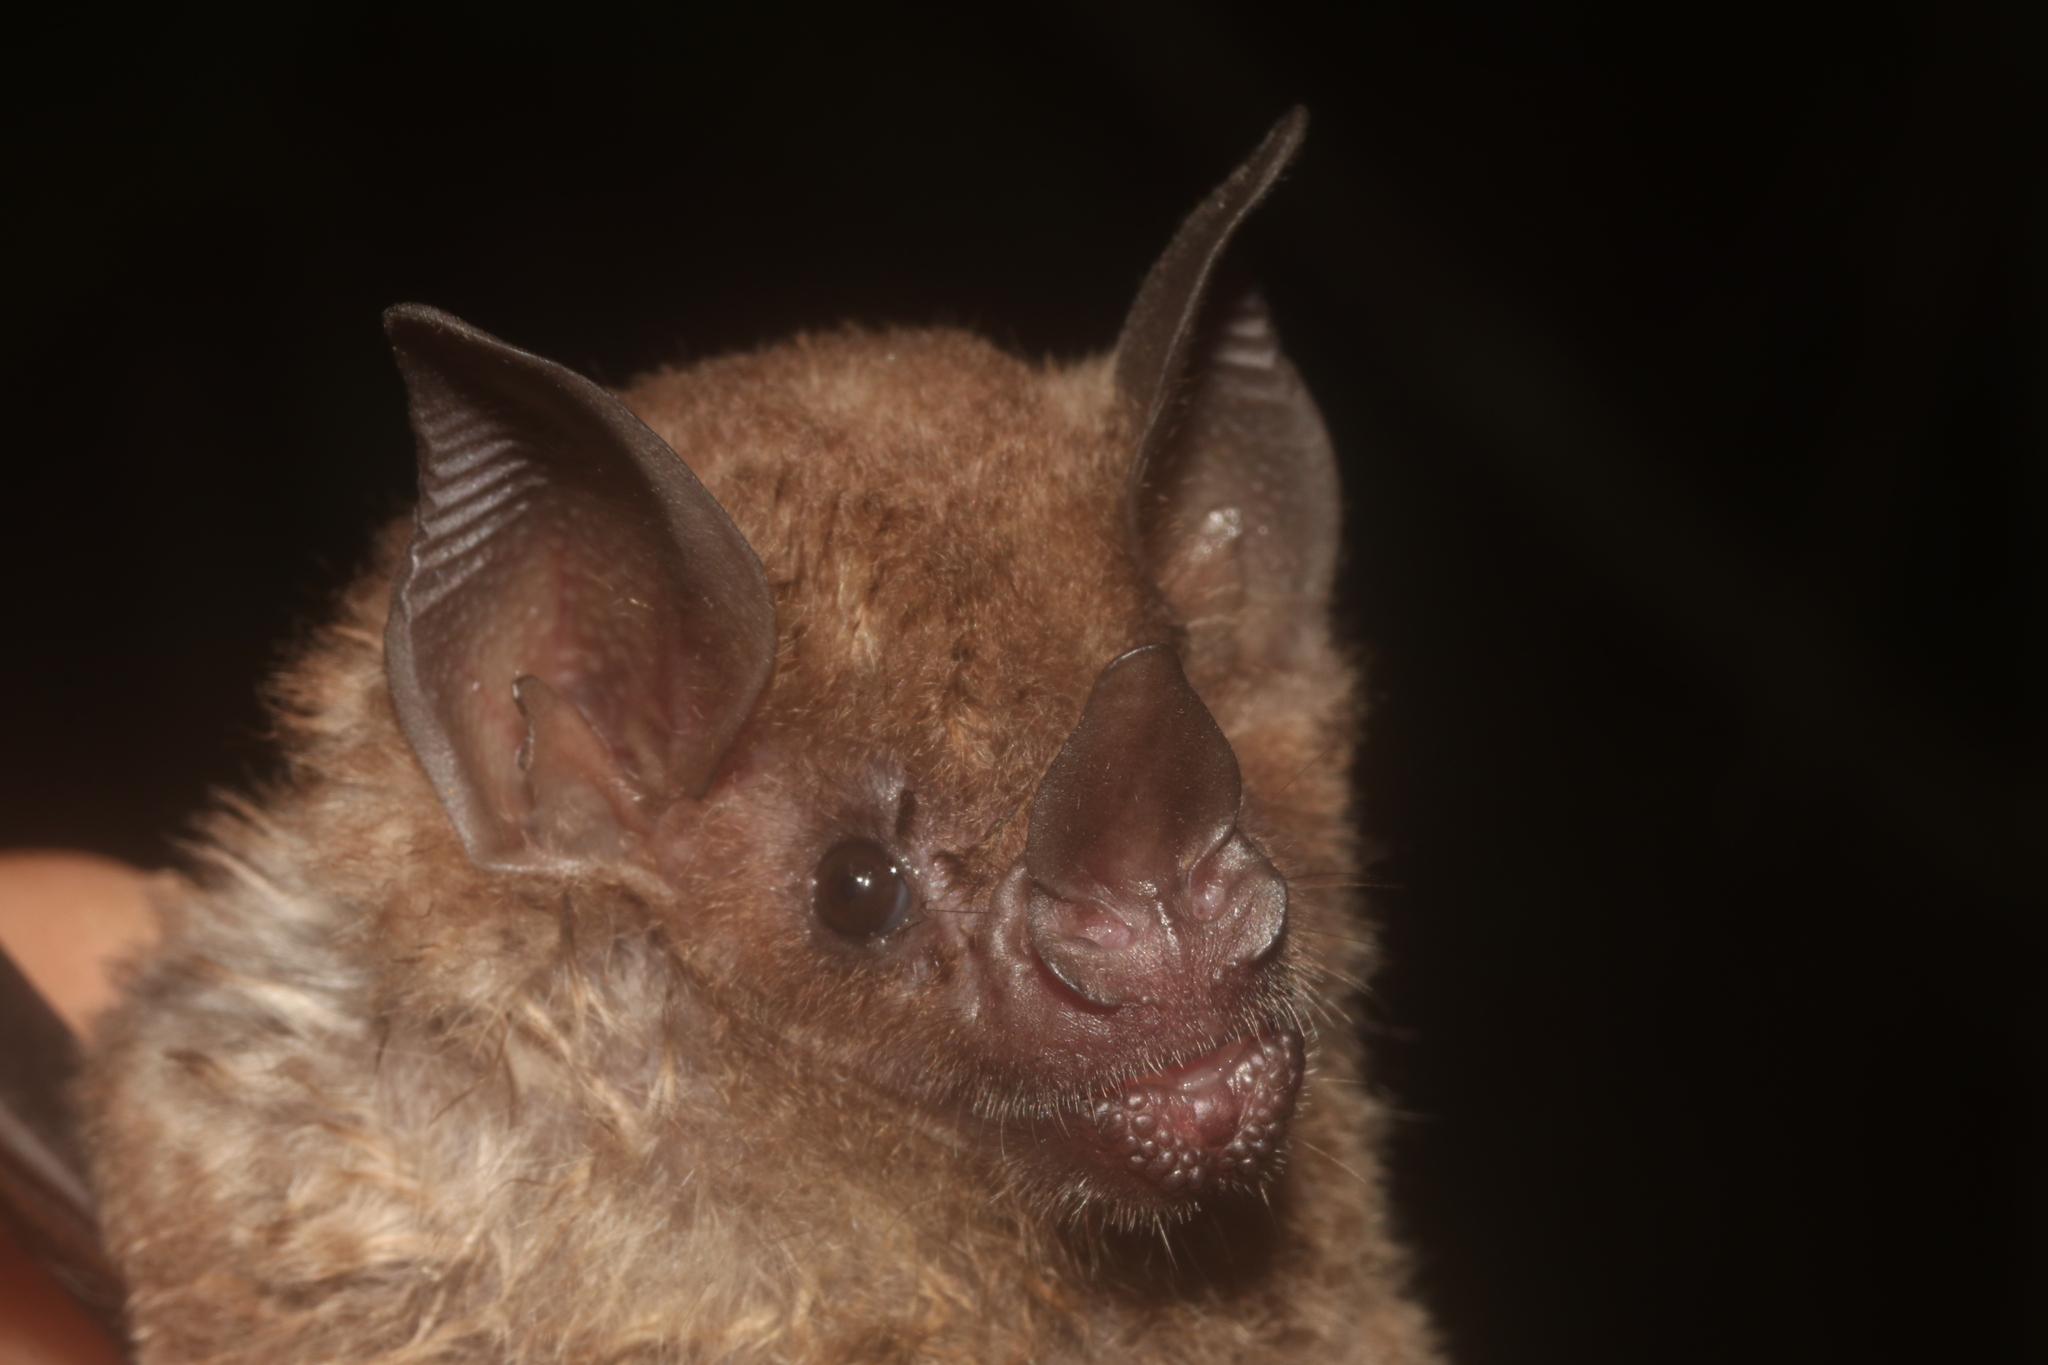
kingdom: Animalia
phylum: Chordata
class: Mammalia
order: Chiroptera
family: Phyllostomidae
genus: Carollia
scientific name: Carollia perspicillata
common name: Seba's short-tailed bat
